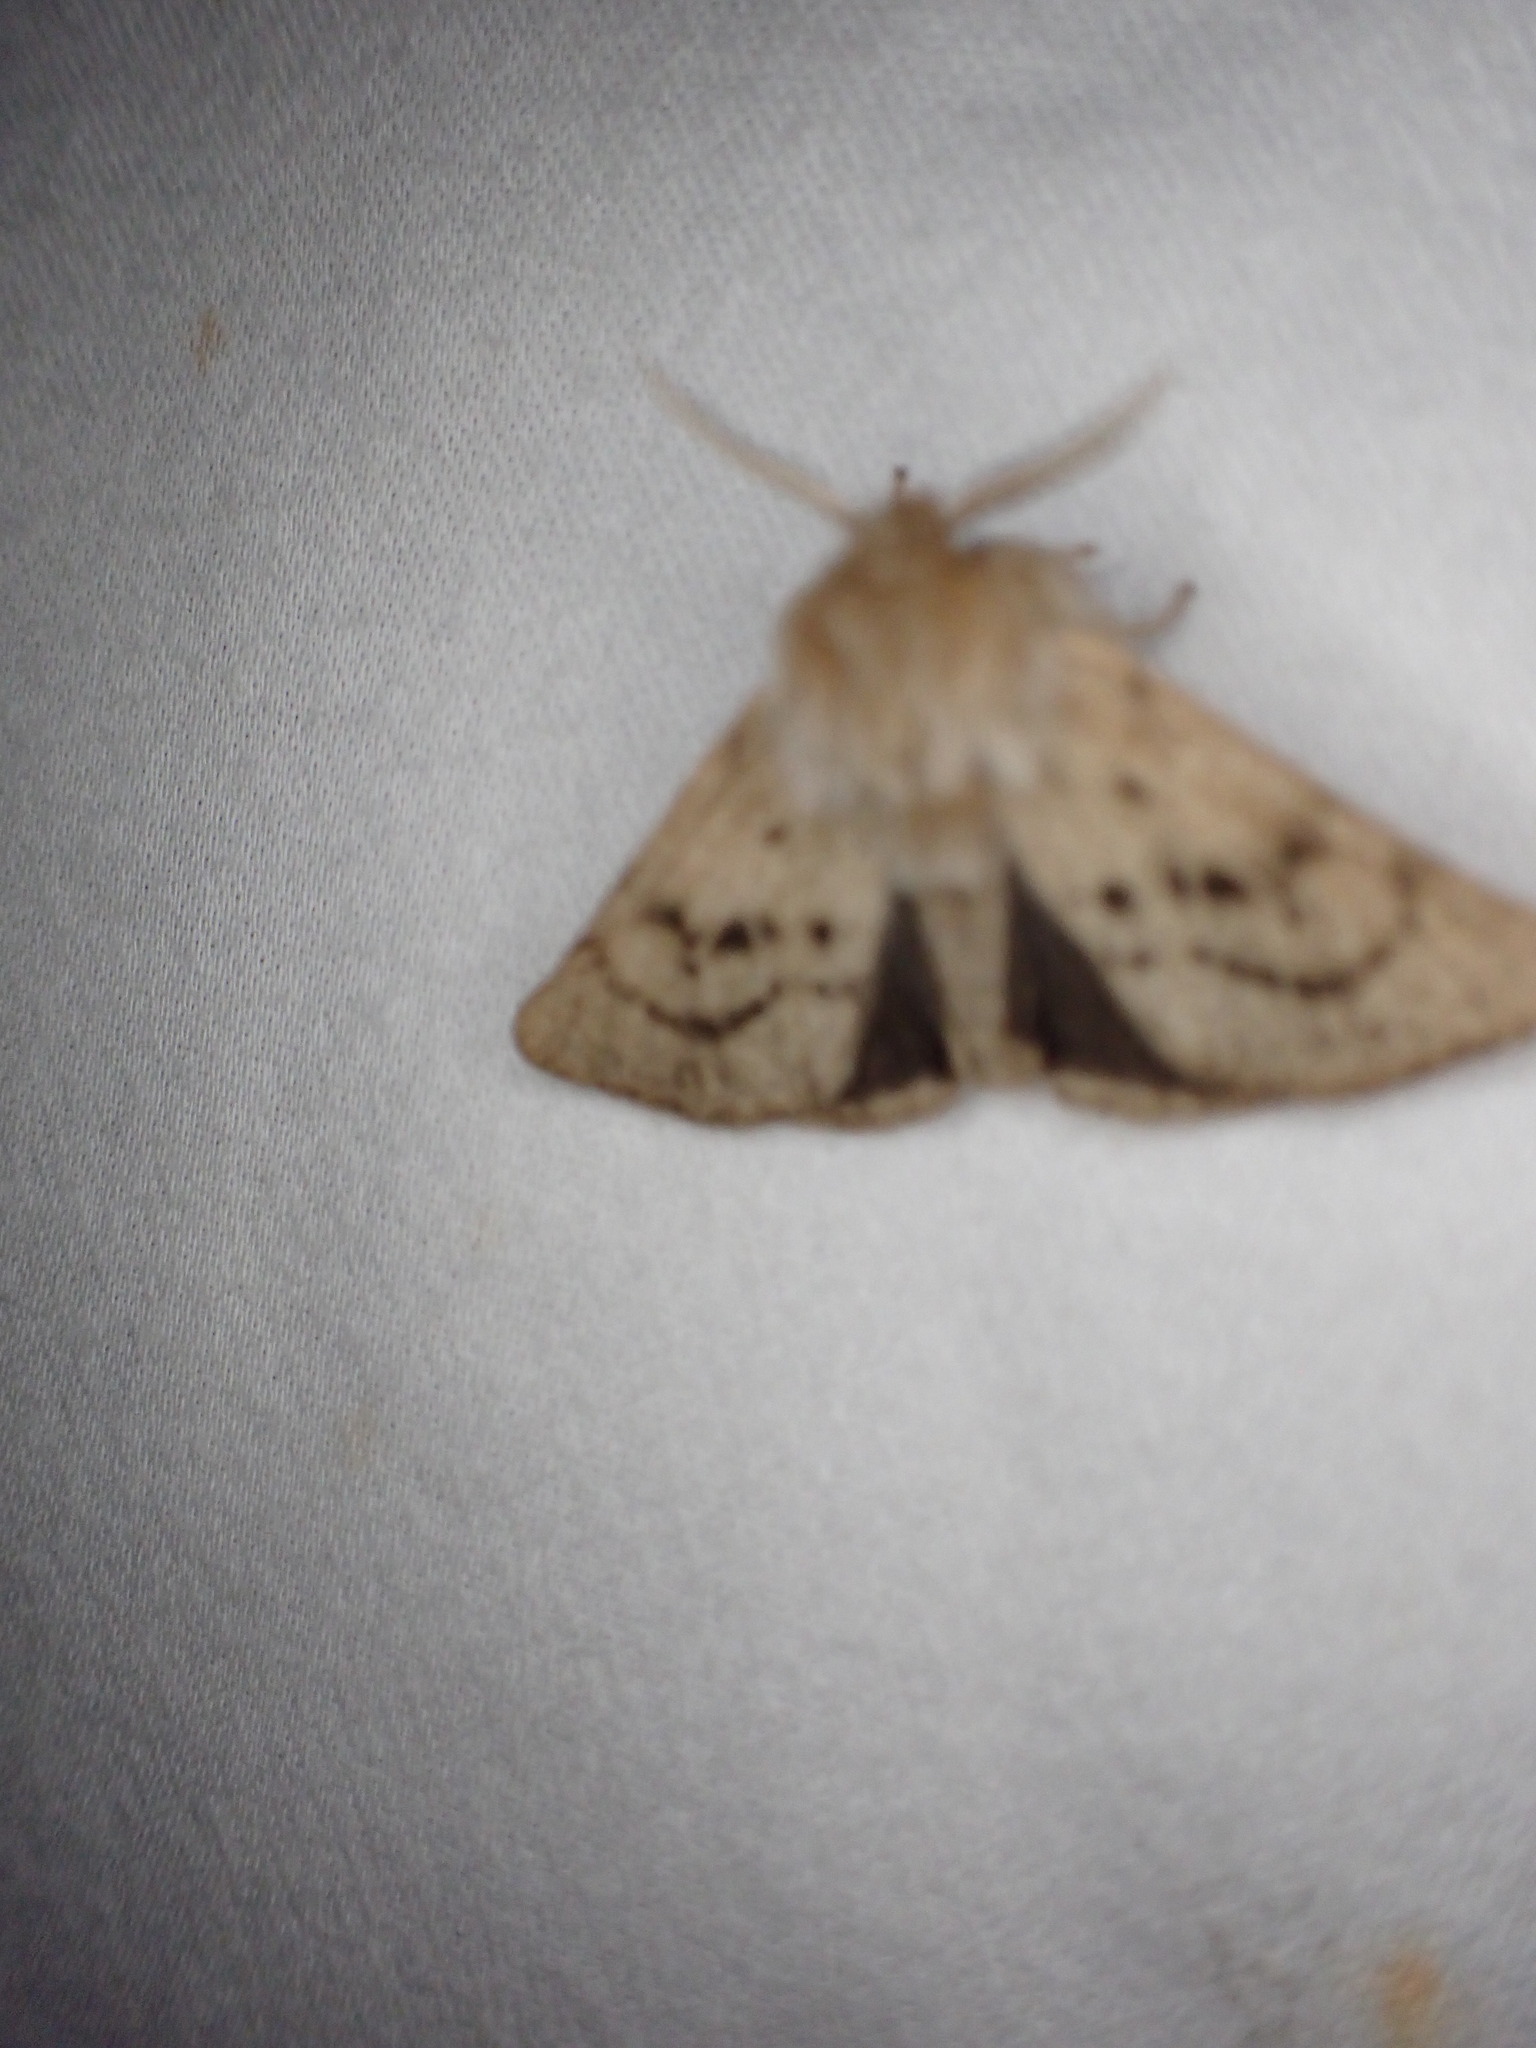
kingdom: Animalia
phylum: Arthropoda
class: Insecta
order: Lepidoptera
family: Erebidae
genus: Spilosoma
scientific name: Spilosoma vagans
